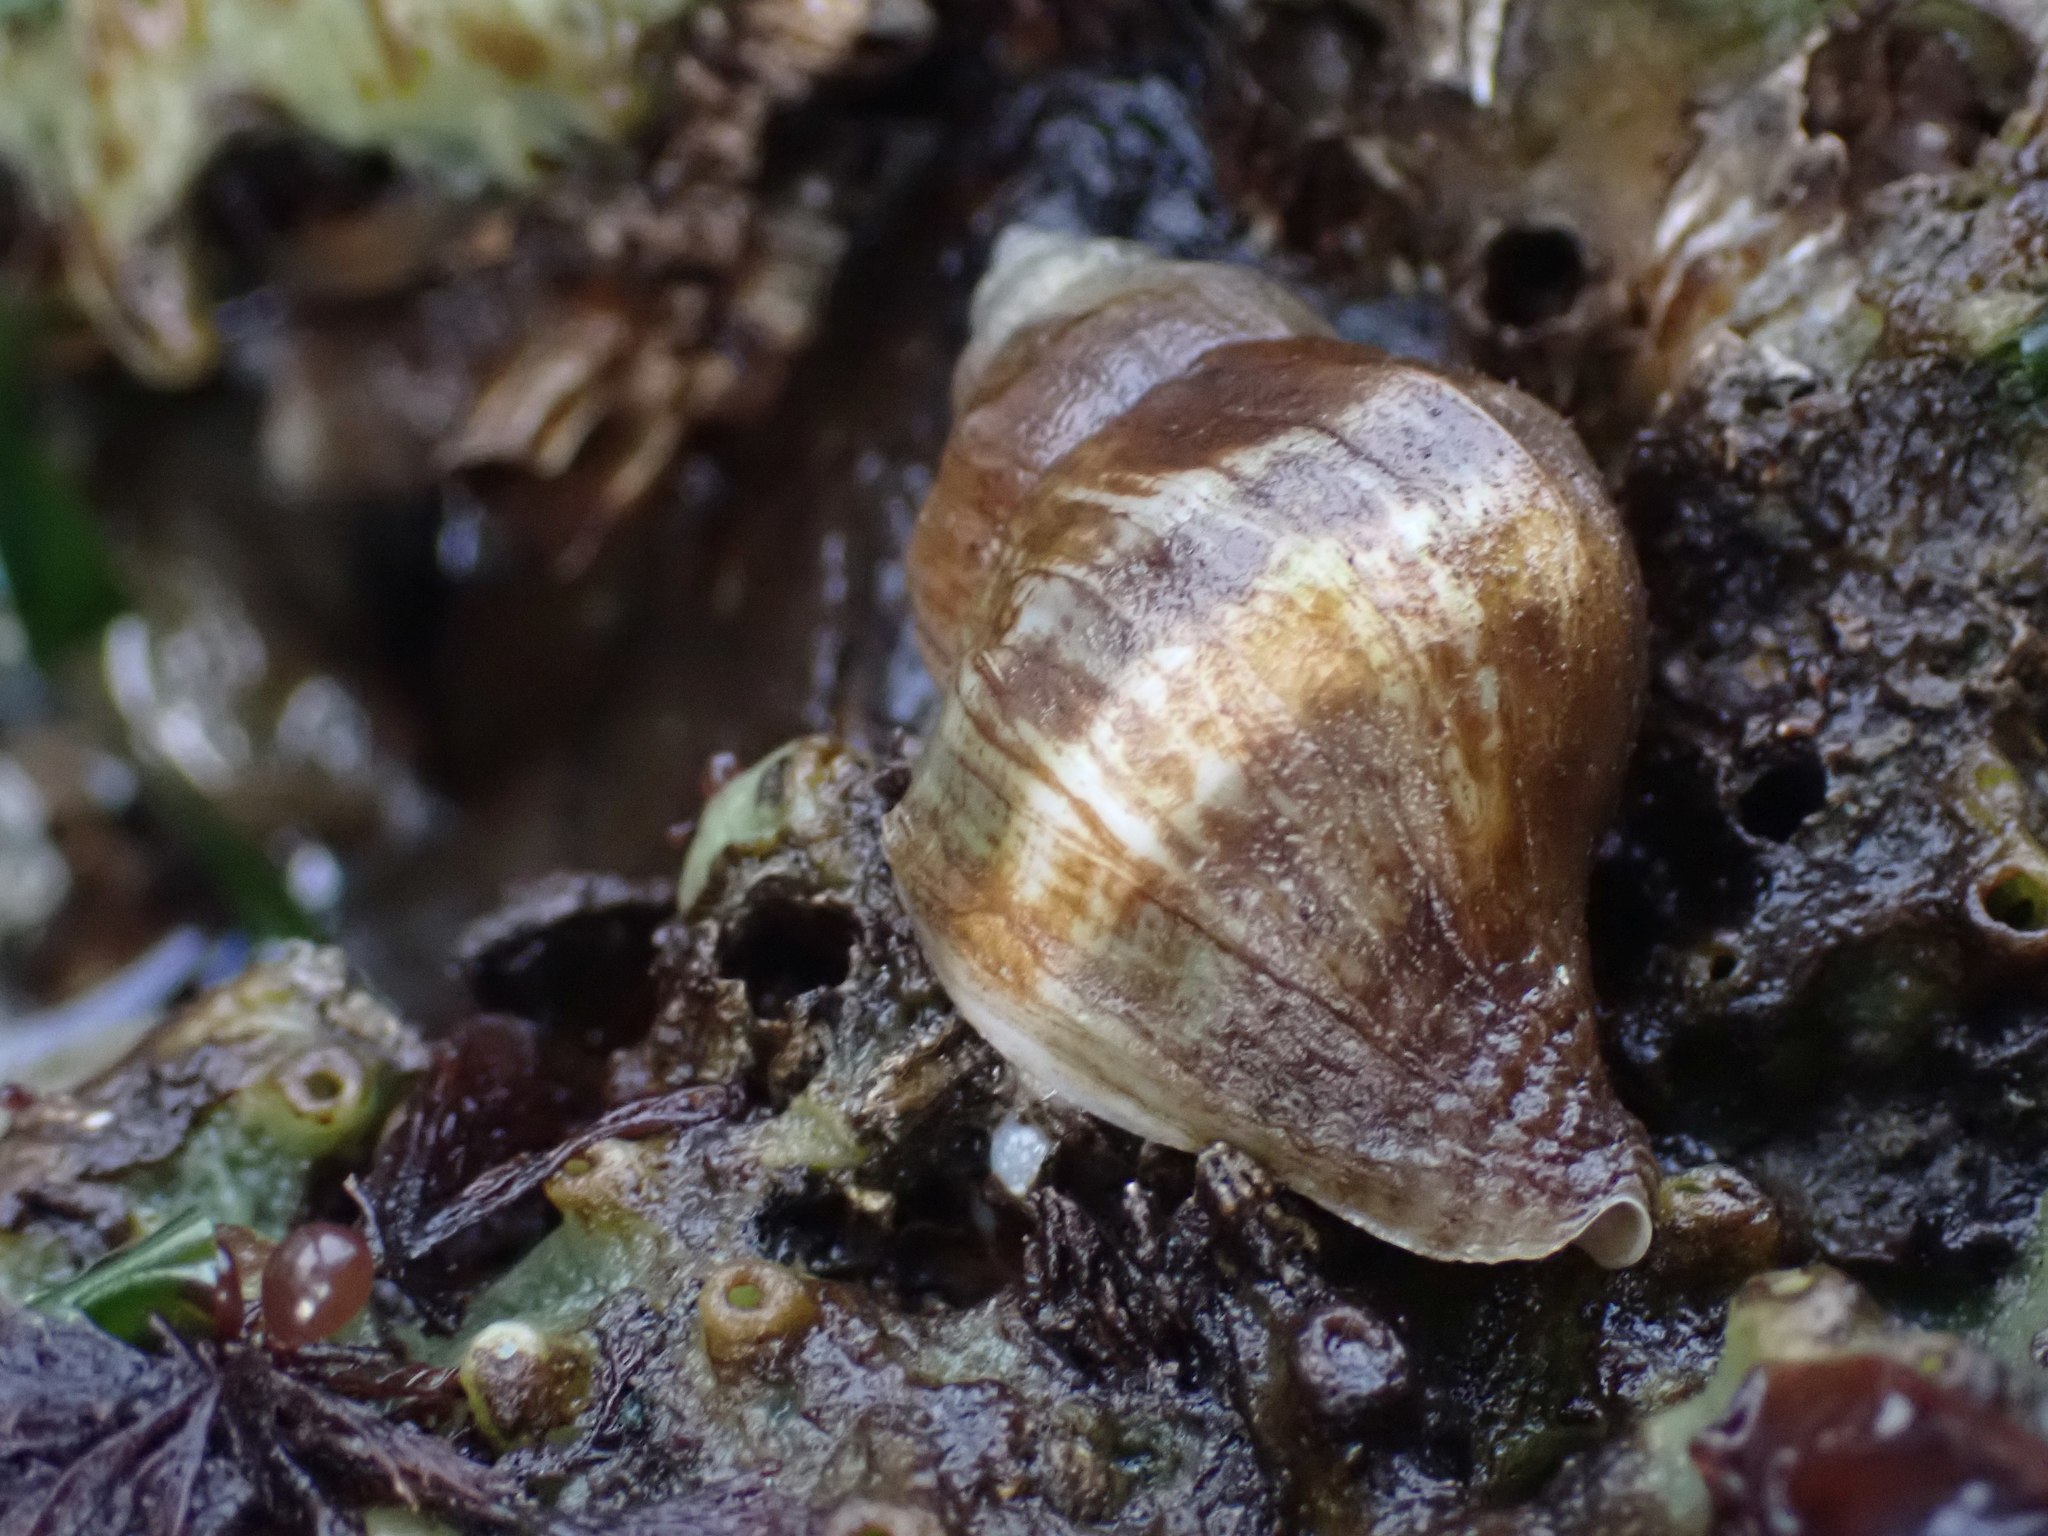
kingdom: Animalia
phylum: Mollusca
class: Gastropoda
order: Neogastropoda
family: Muricidae
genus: Nucella
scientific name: Nucella lamellosa
